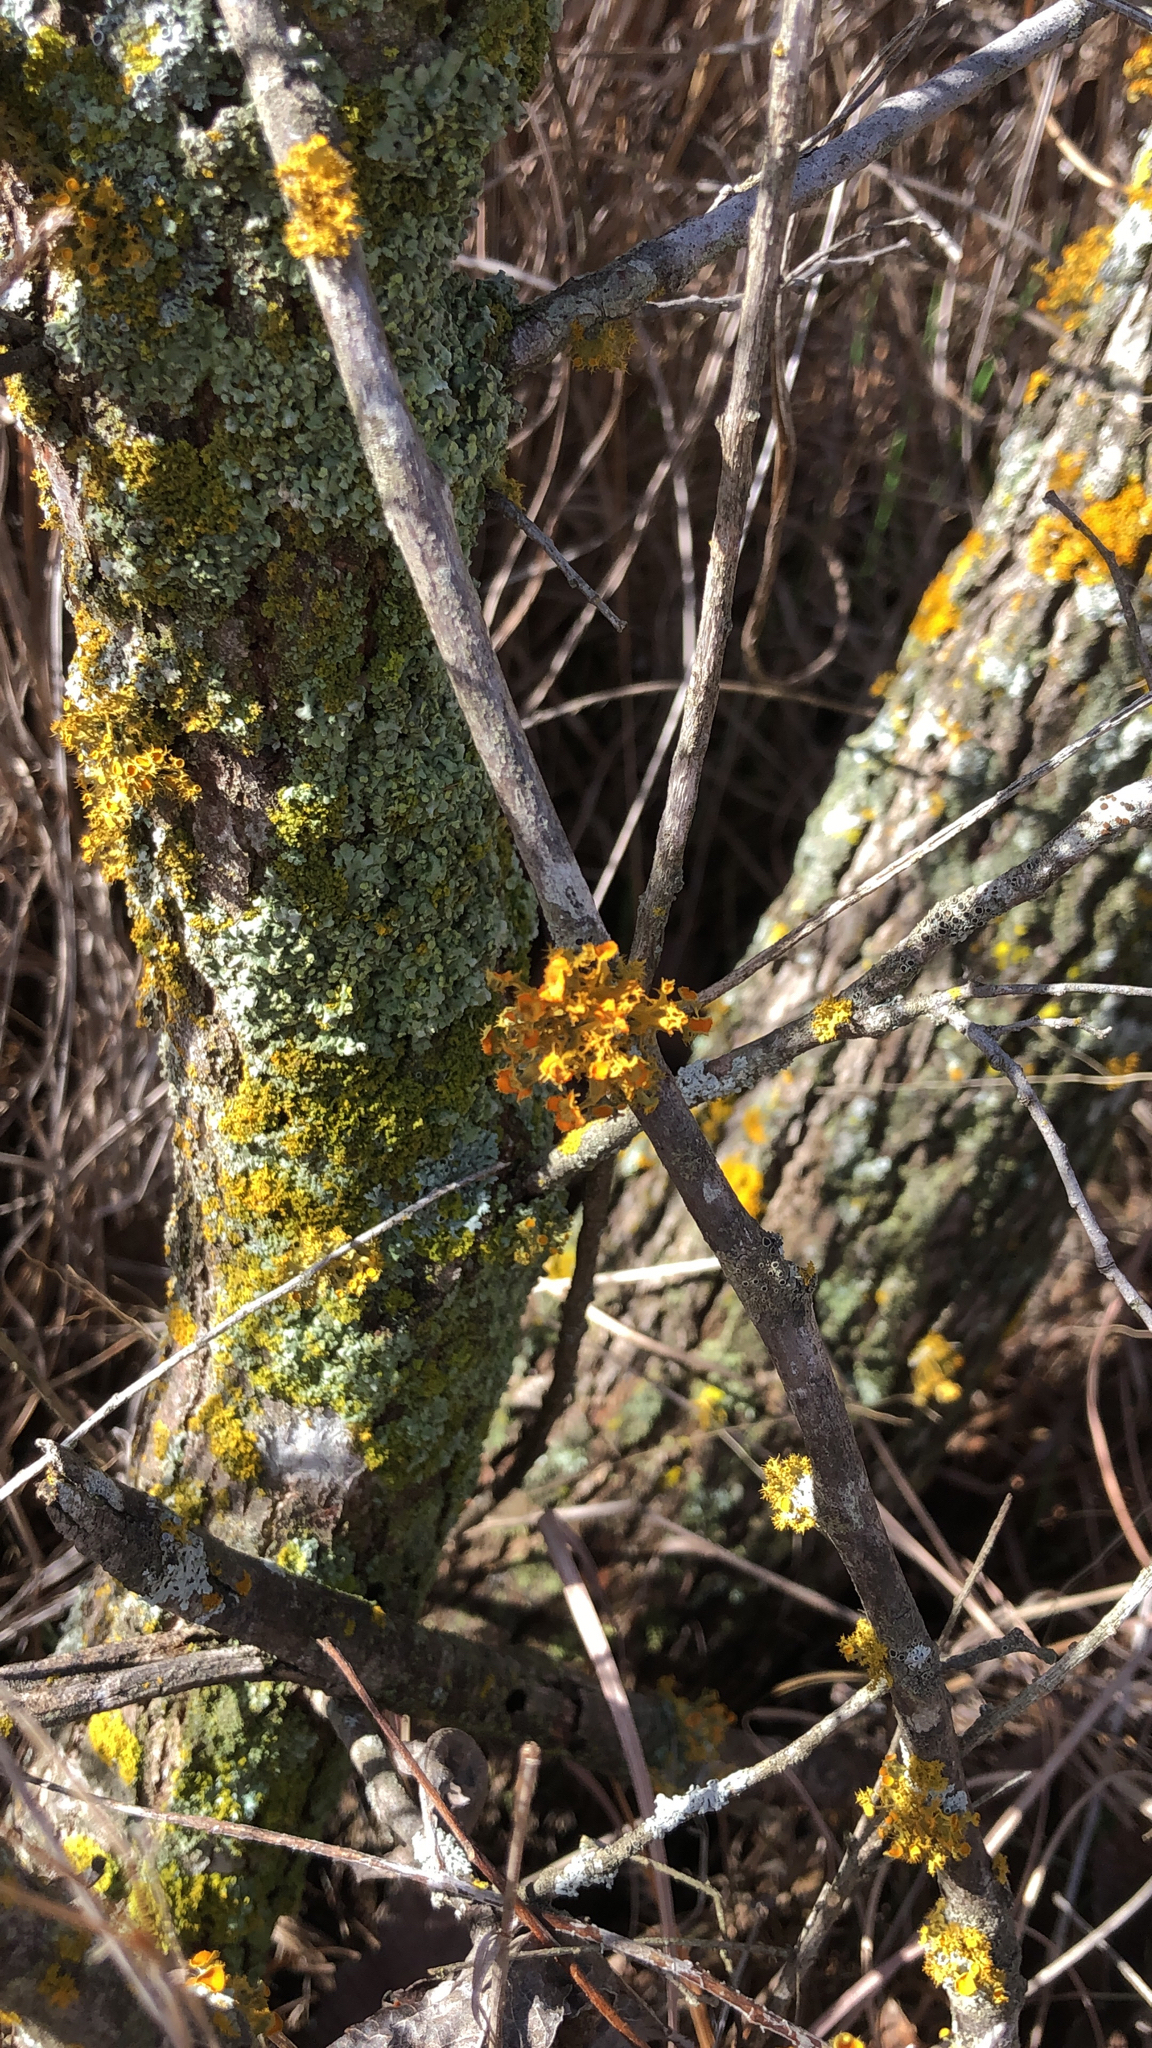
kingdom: Fungi
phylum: Ascomycota
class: Lecanoromycetes
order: Teloschistales
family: Teloschistaceae
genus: Niorma
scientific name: Niorma chrysophthalma
